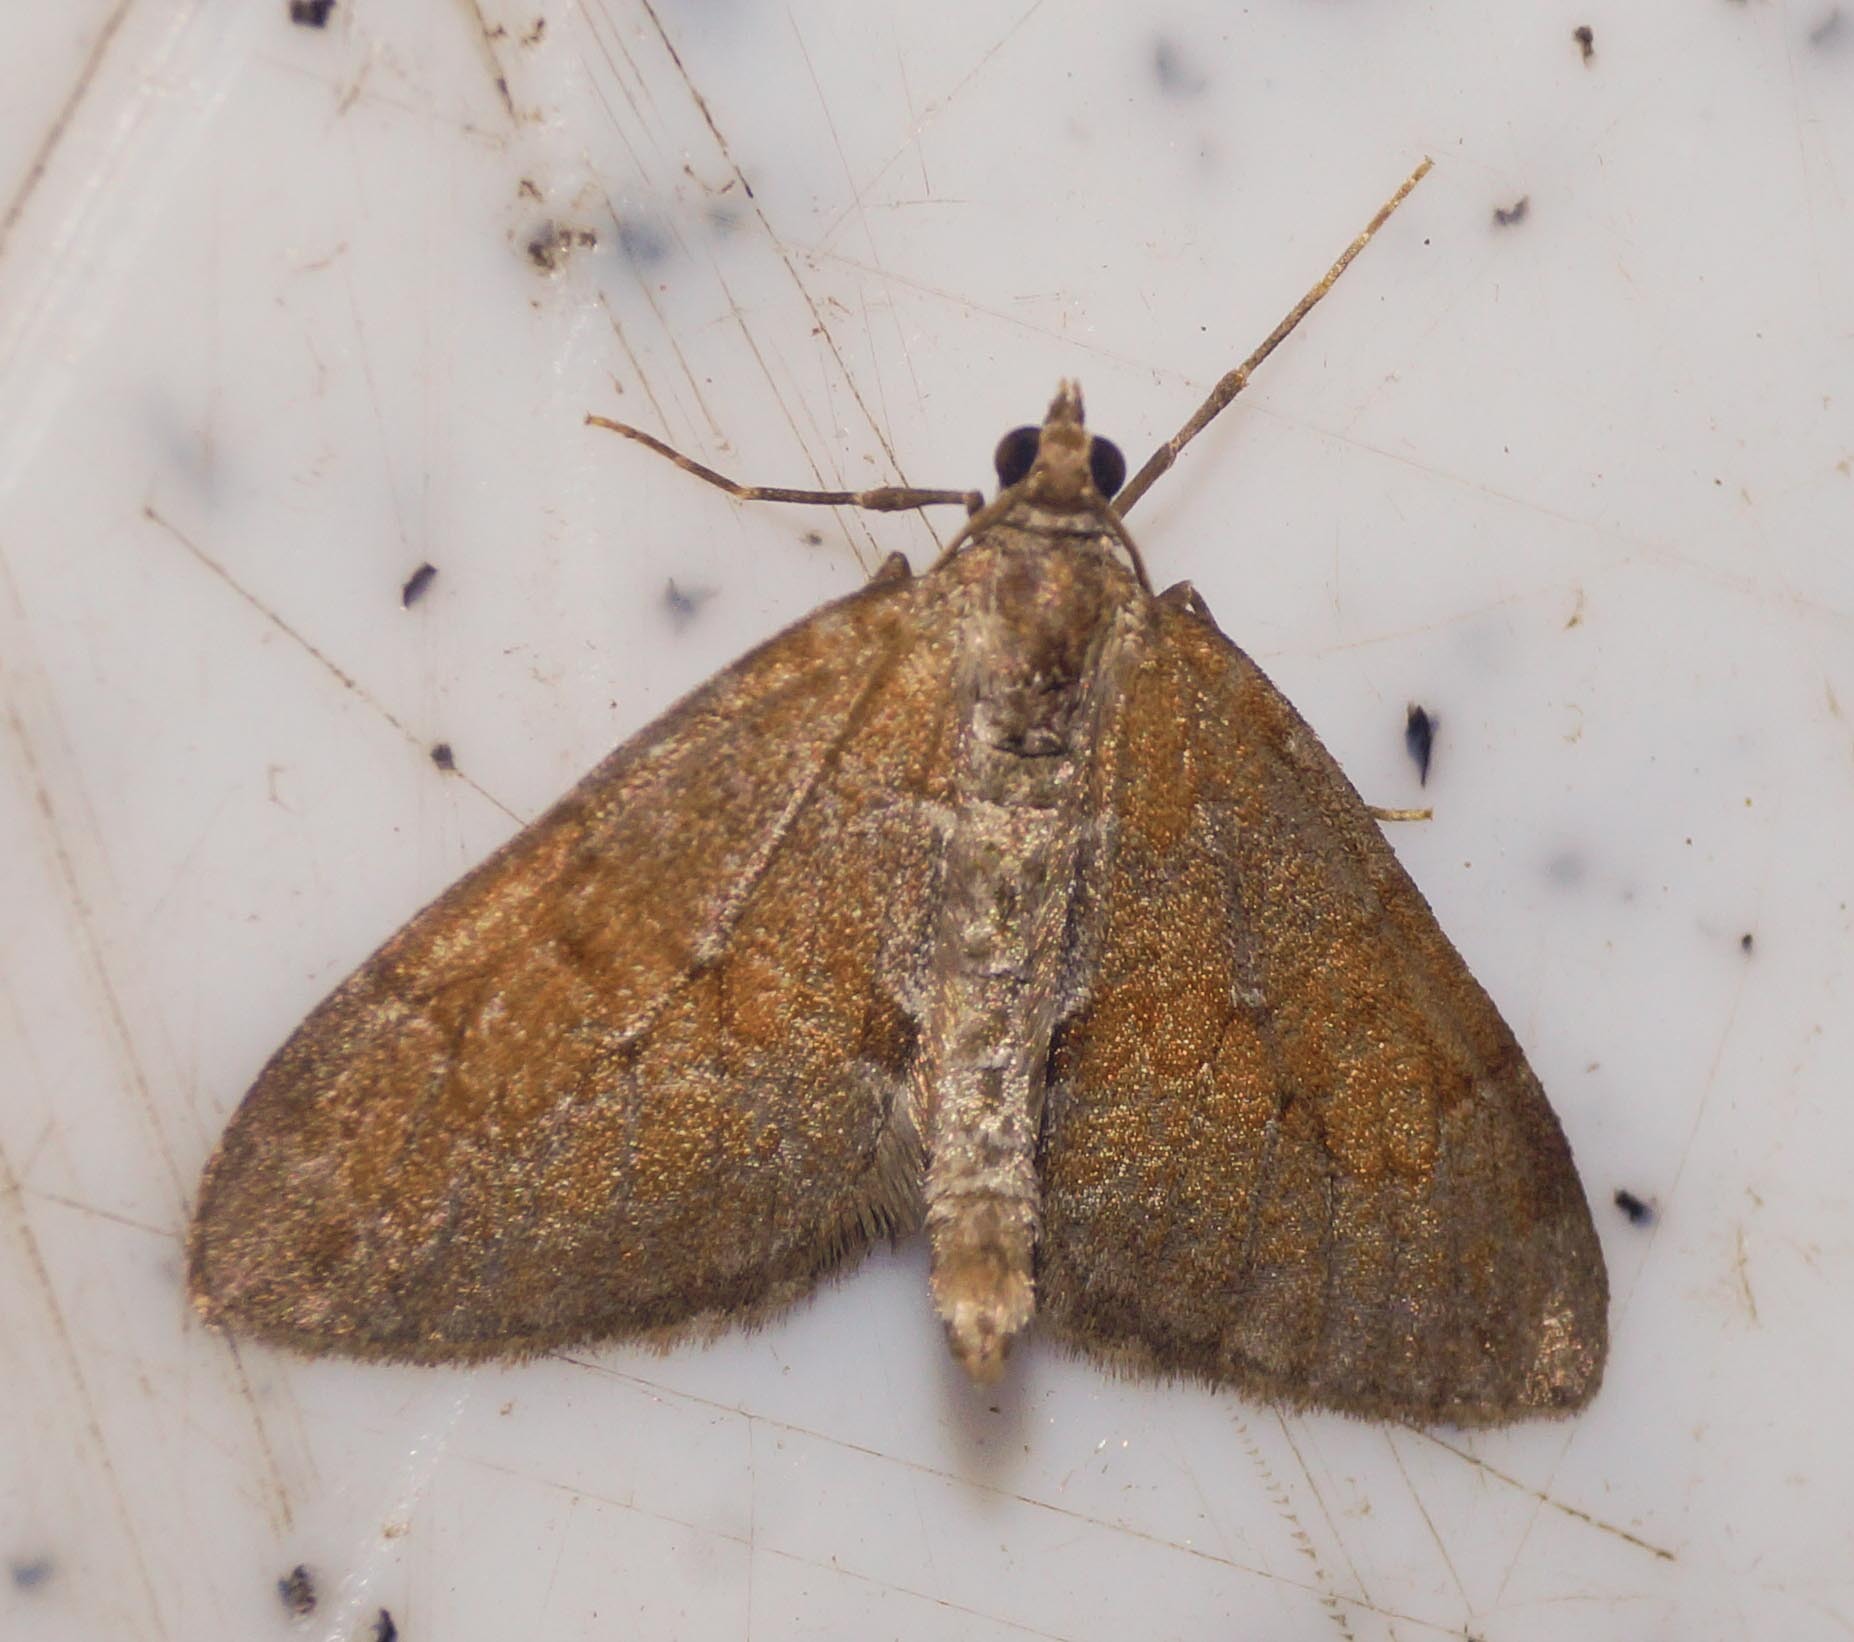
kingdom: Animalia
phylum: Arthropoda
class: Insecta
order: Lepidoptera
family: Geometridae
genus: Thera
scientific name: Thera obeliscata
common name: Grey pine carpet
